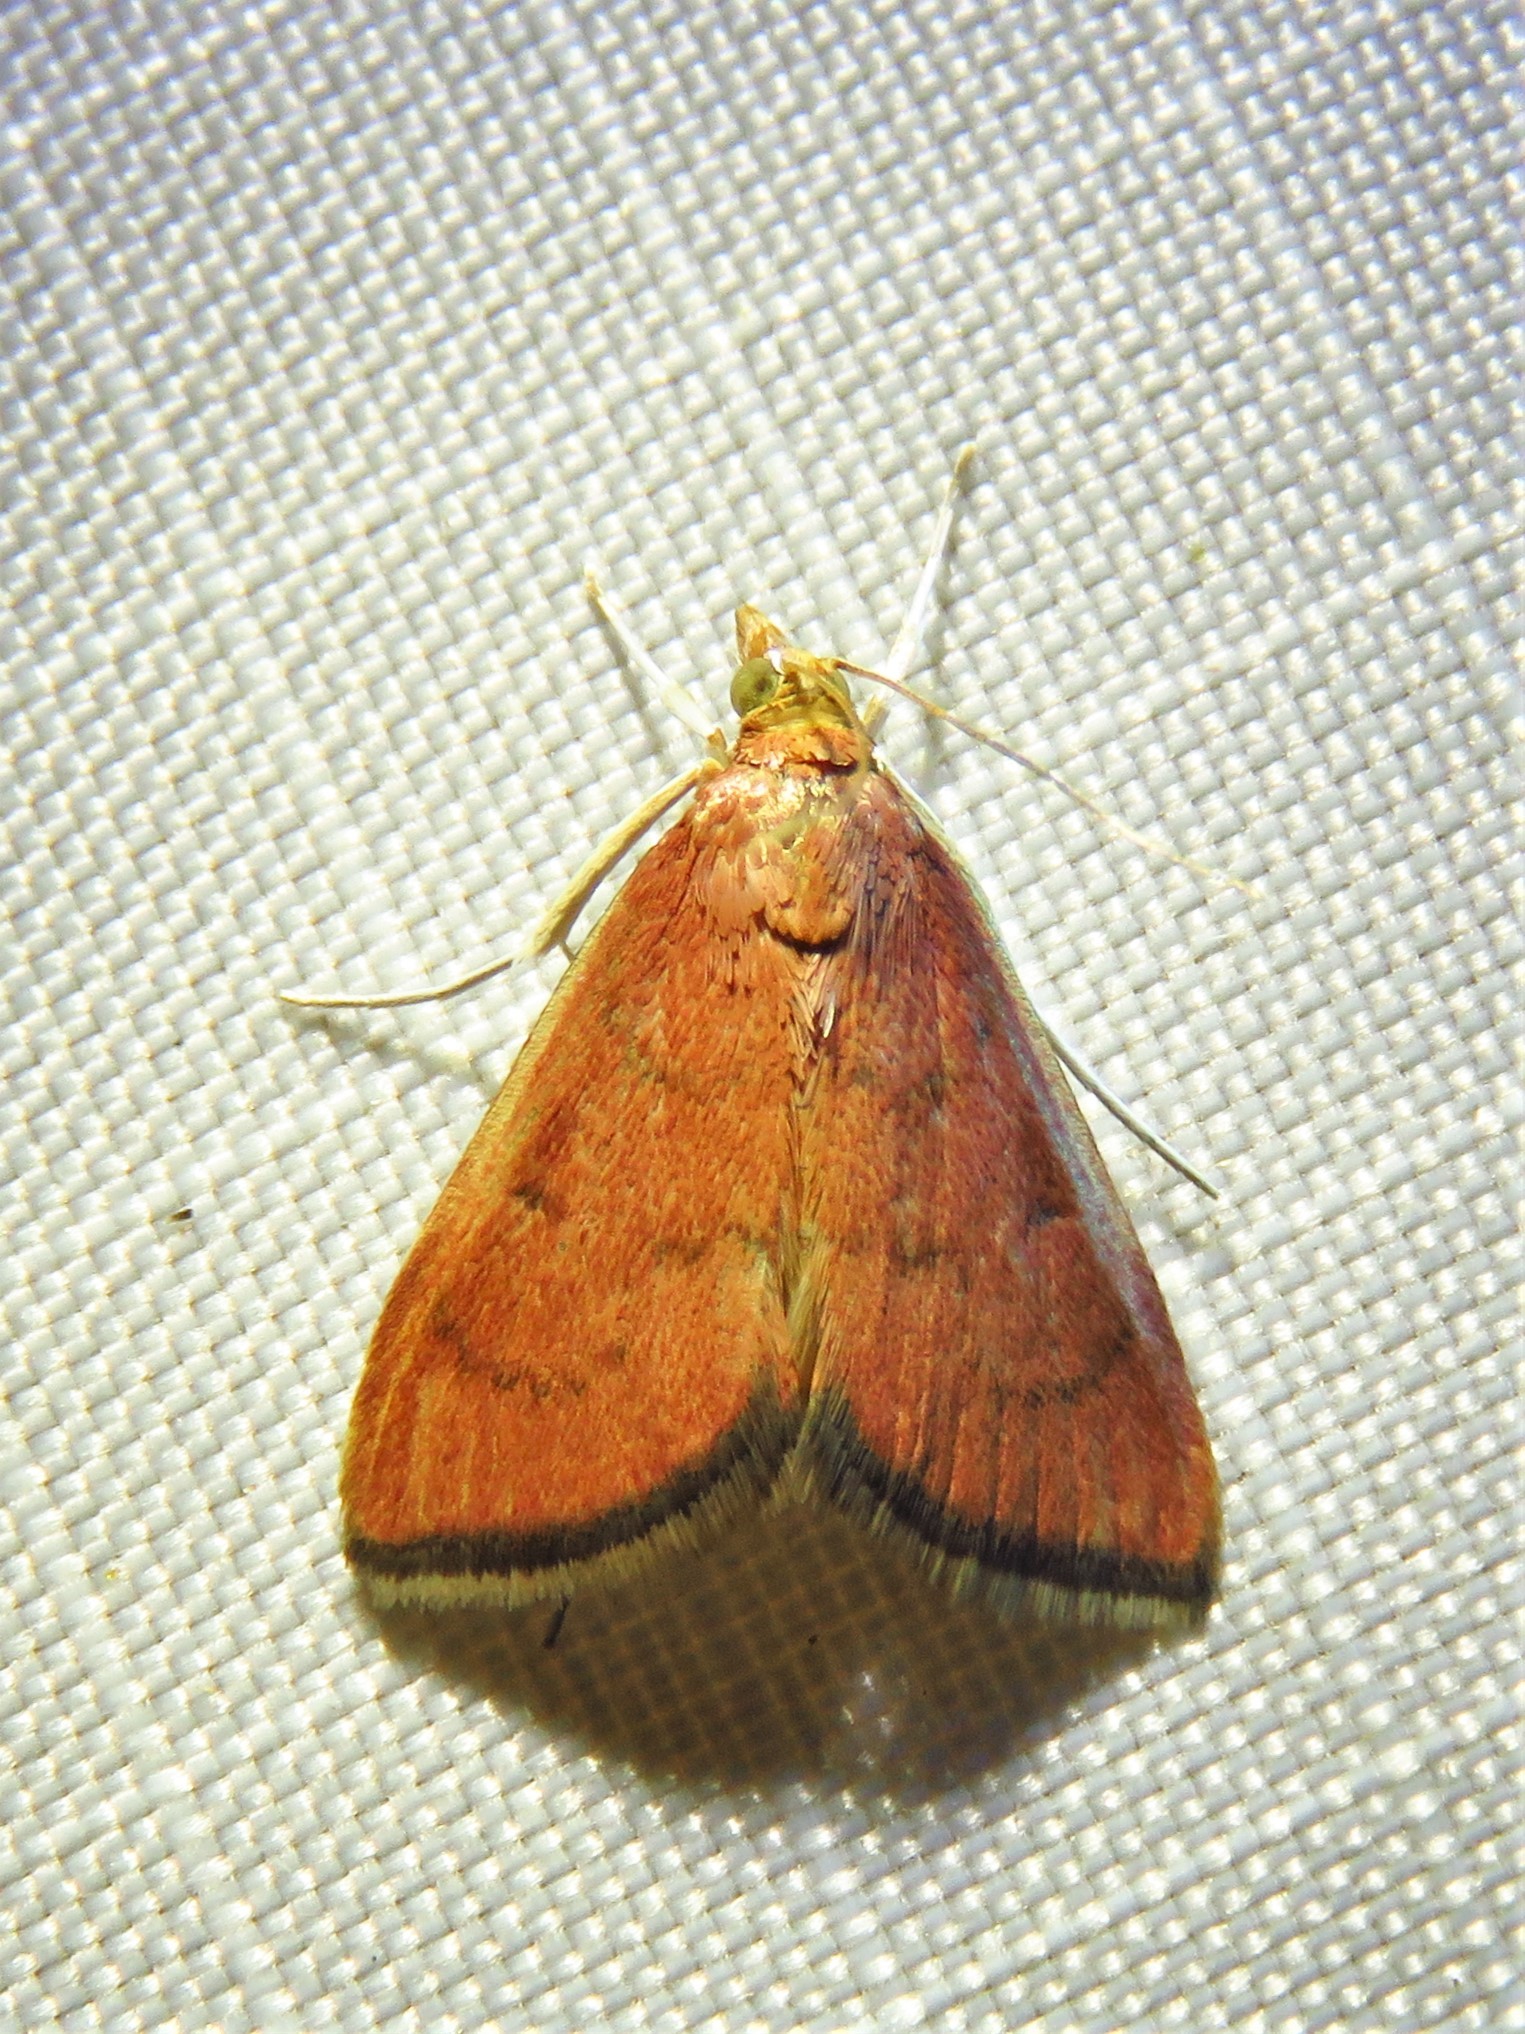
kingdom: Animalia
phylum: Arthropoda
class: Insecta
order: Lepidoptera
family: Crambidae
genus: Oenobotys
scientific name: Oenobotys texanalis
